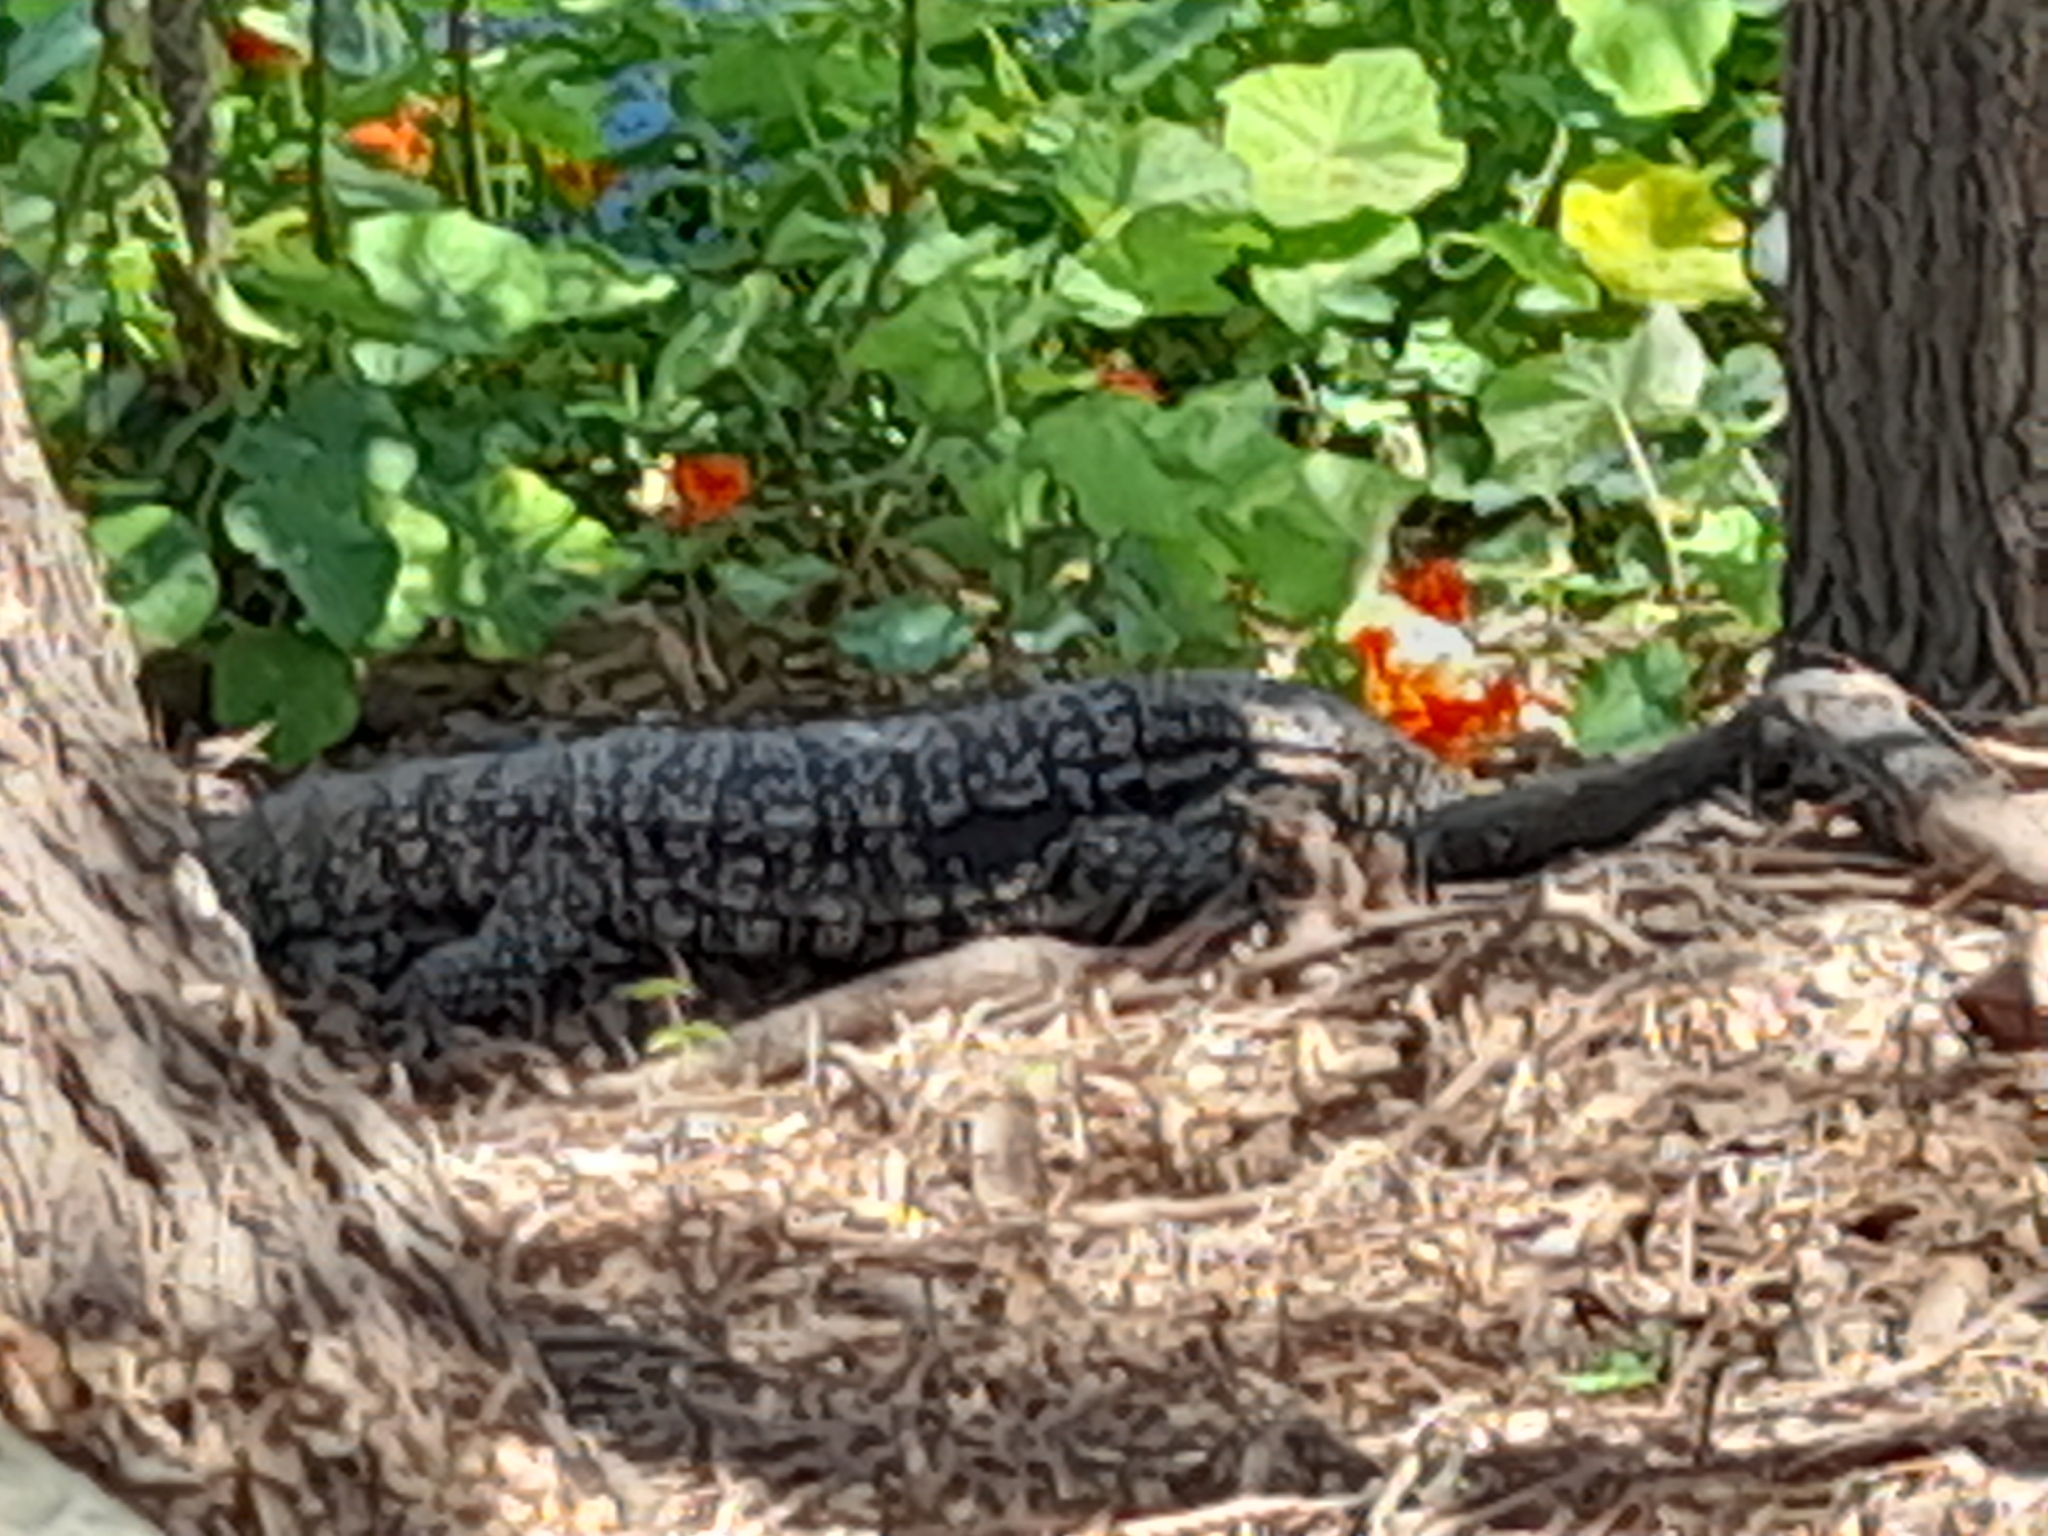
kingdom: Animalia
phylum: Chordata
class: Squamata
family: Teiidae
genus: Salvator
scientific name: Salvator merianae
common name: Argentine black and white tegu
